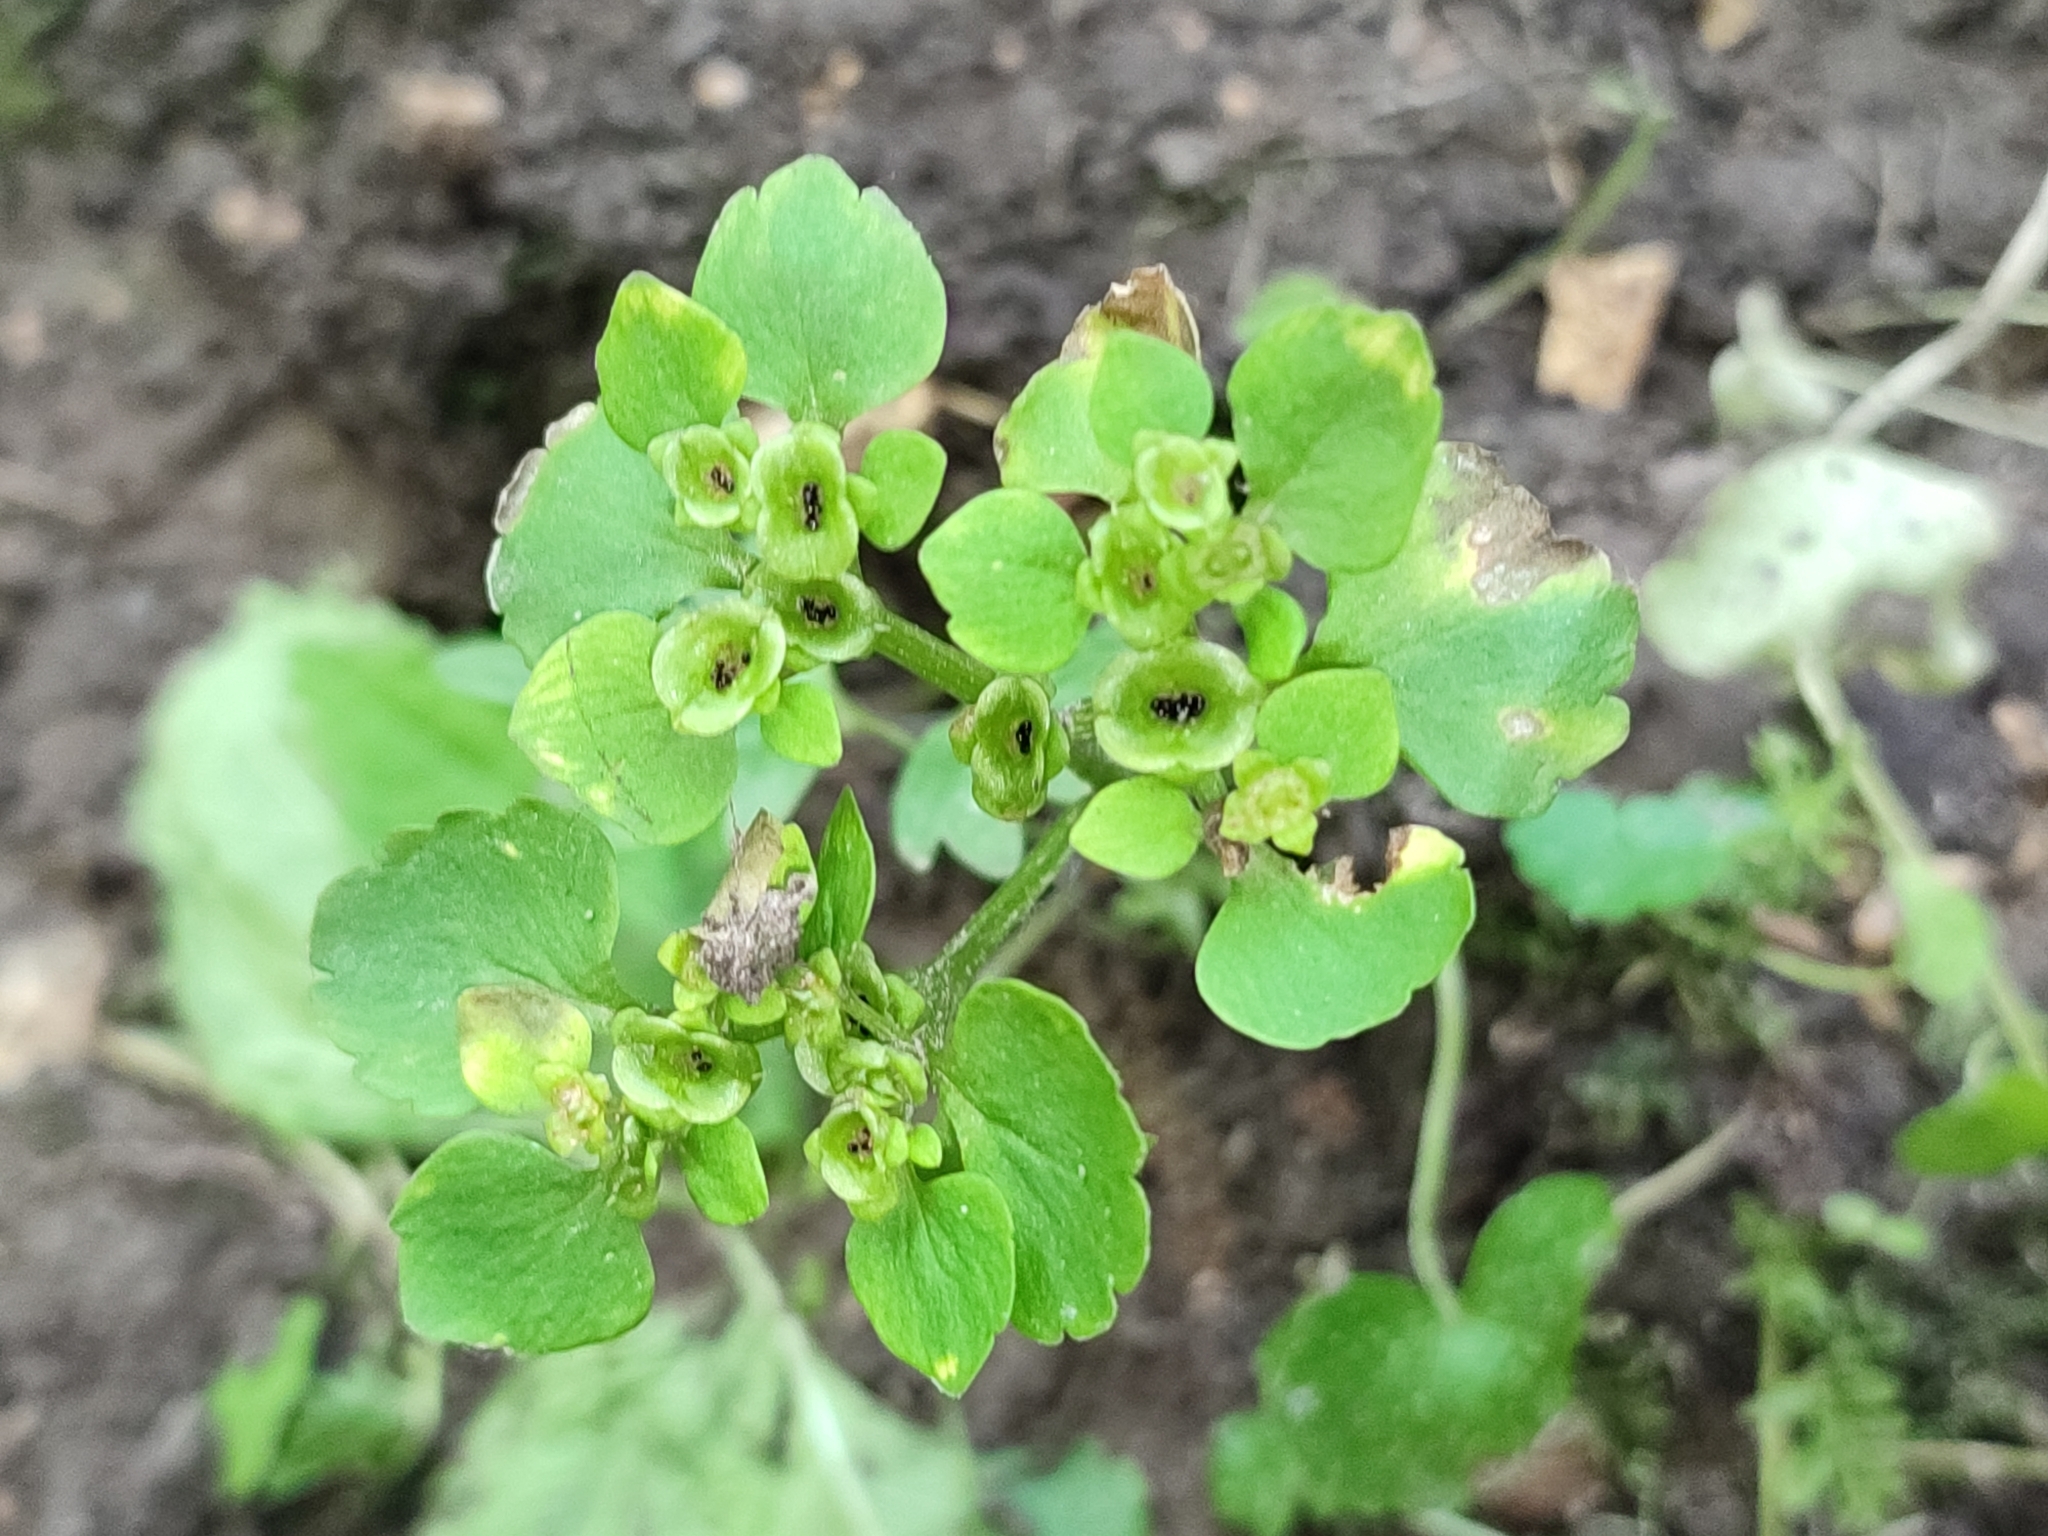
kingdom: Plantae
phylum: Tracheophyta
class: Magnoliopsida
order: Saxifragales
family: Saxifragaceae
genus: Chrysosplenium
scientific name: Chrysosplenium alternifolium
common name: Alternate-leaved golden-saxifrage
